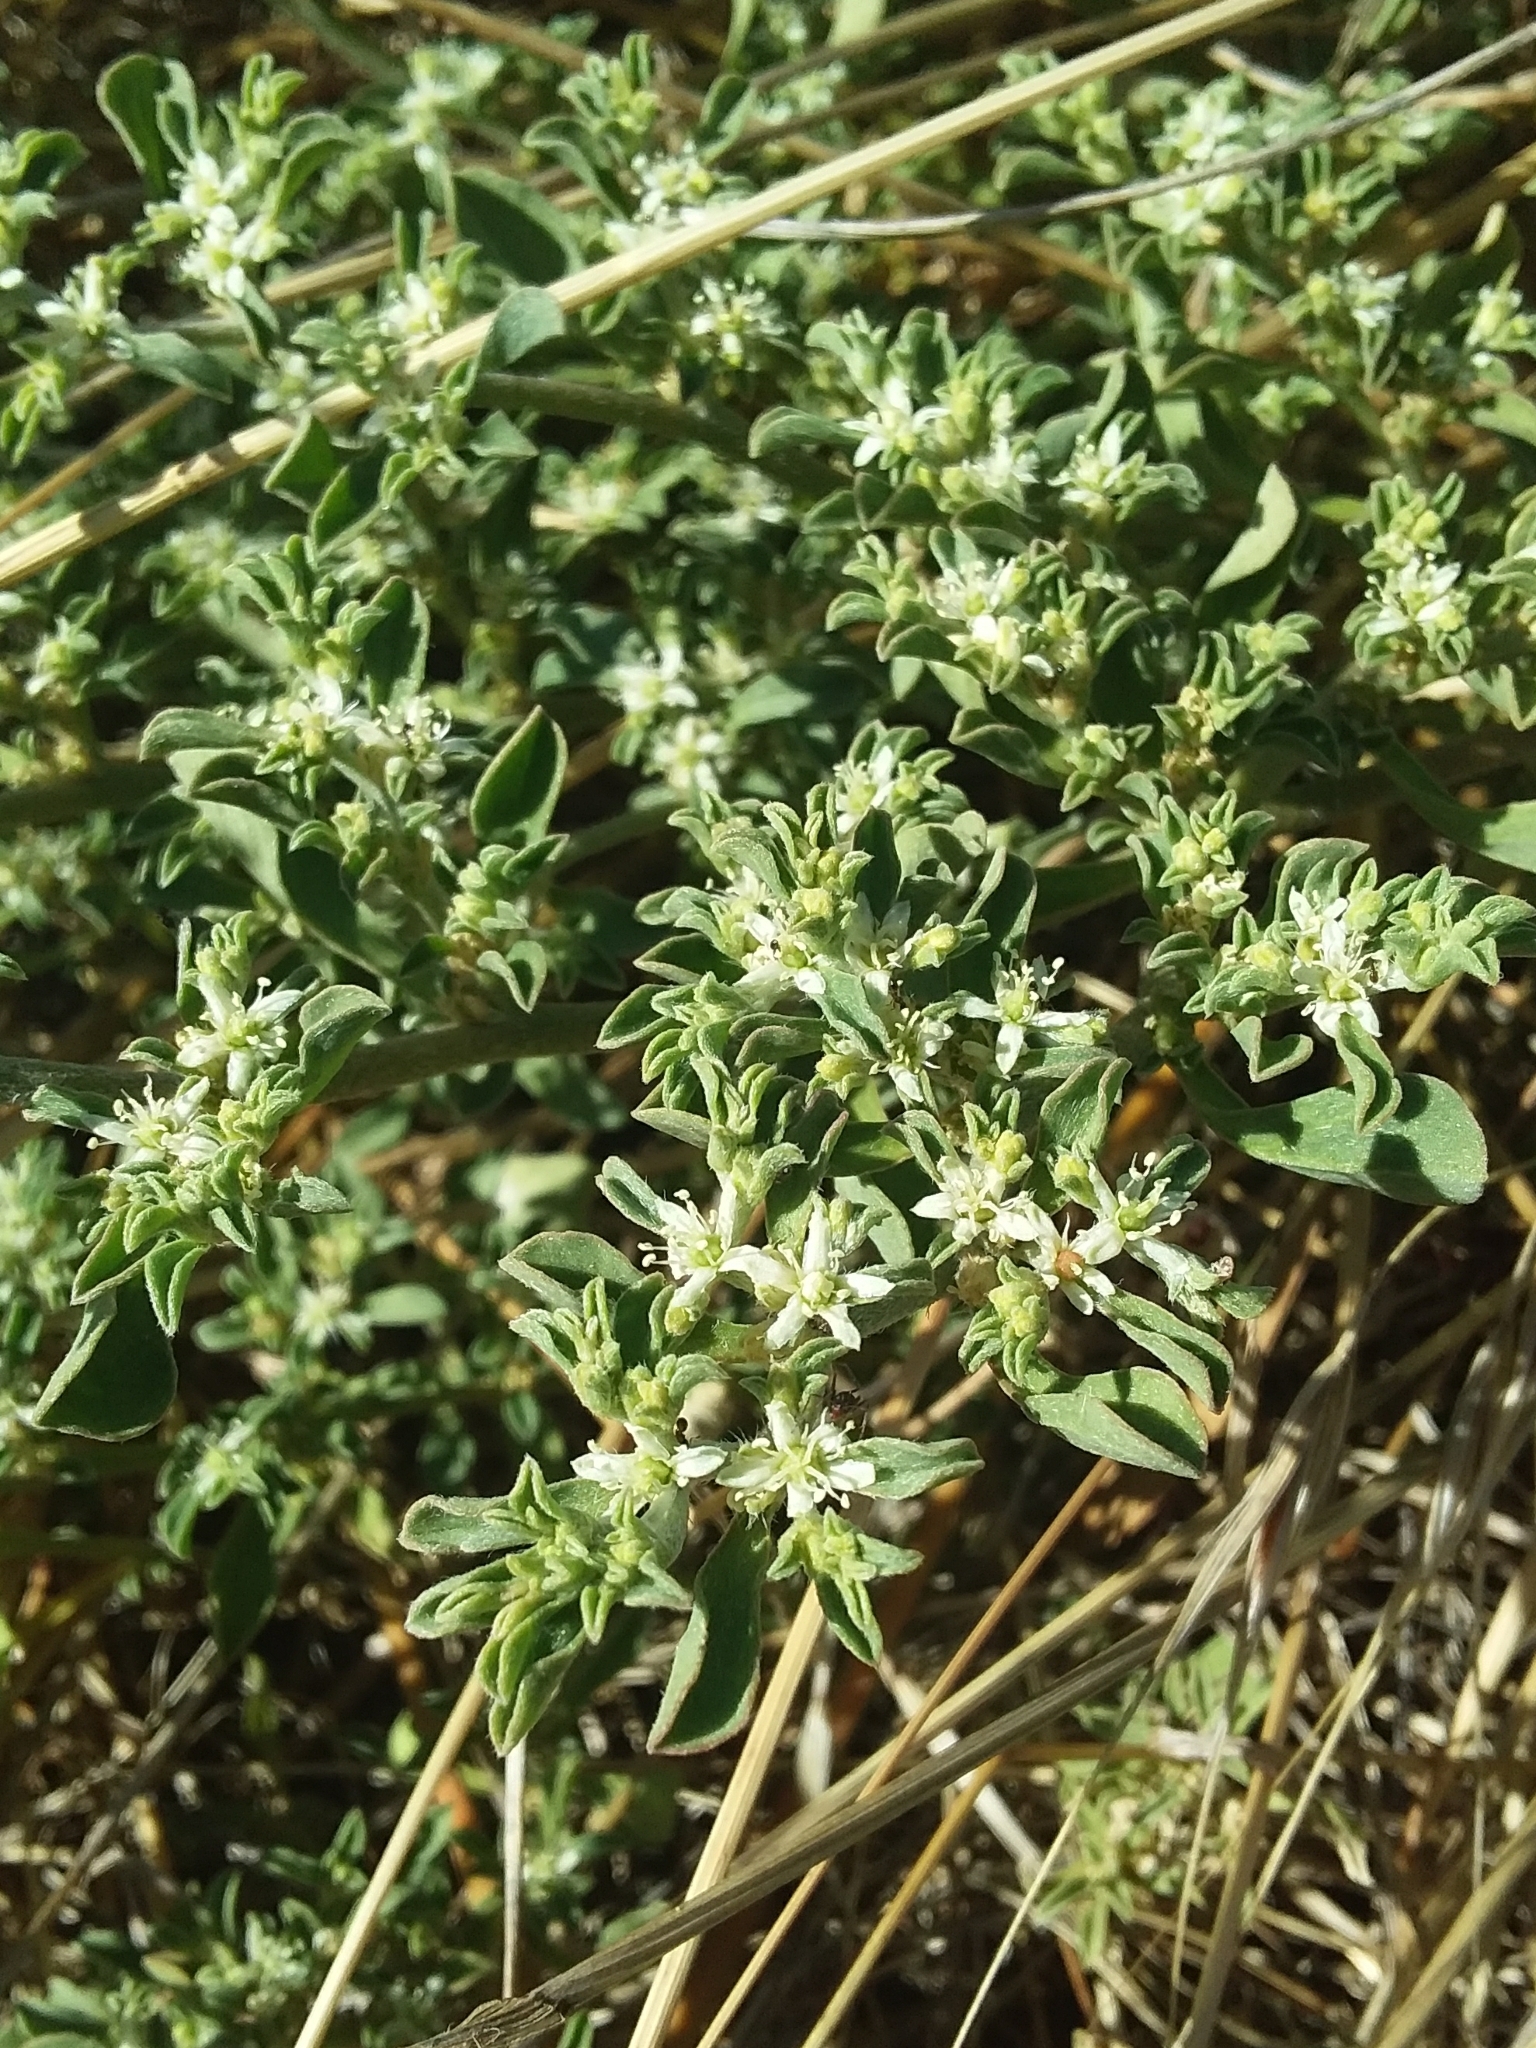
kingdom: Plantae
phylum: Tracheophyta
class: Magnoliopsida
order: Caryophyllales
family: Aizoaceae
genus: Aizoon
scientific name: Aizoon pubescens
